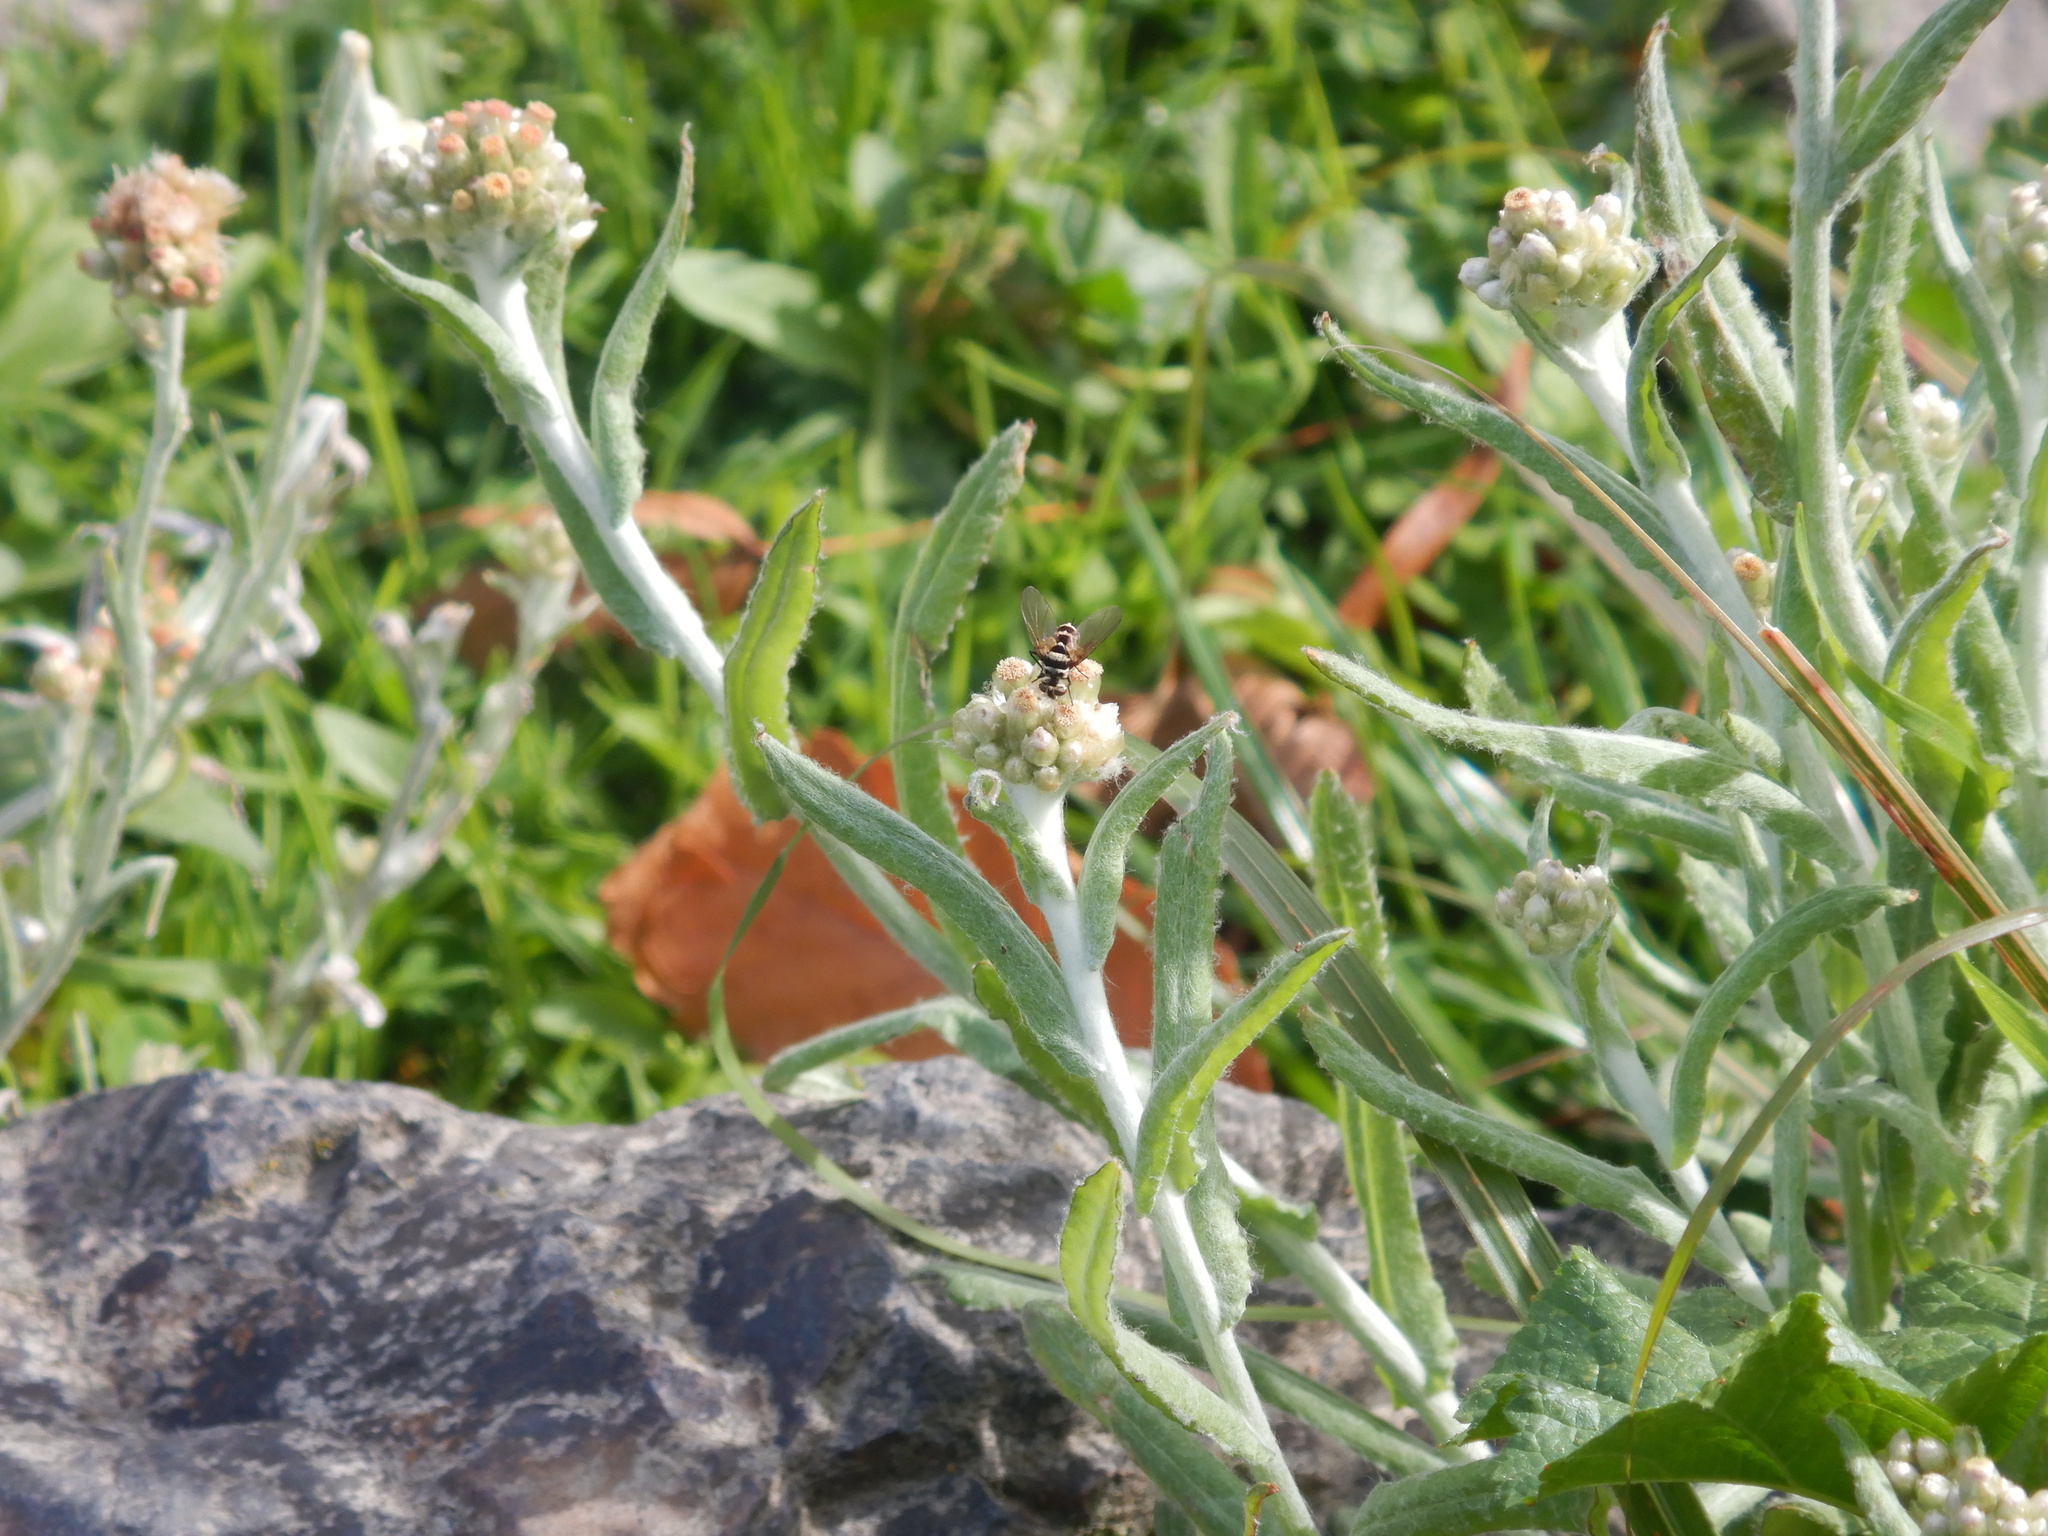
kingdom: Animalia
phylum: Arthropoda
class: Insecta
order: Diptera
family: Tachinidae
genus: Trigonospila
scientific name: Trigonospila brevifacies
